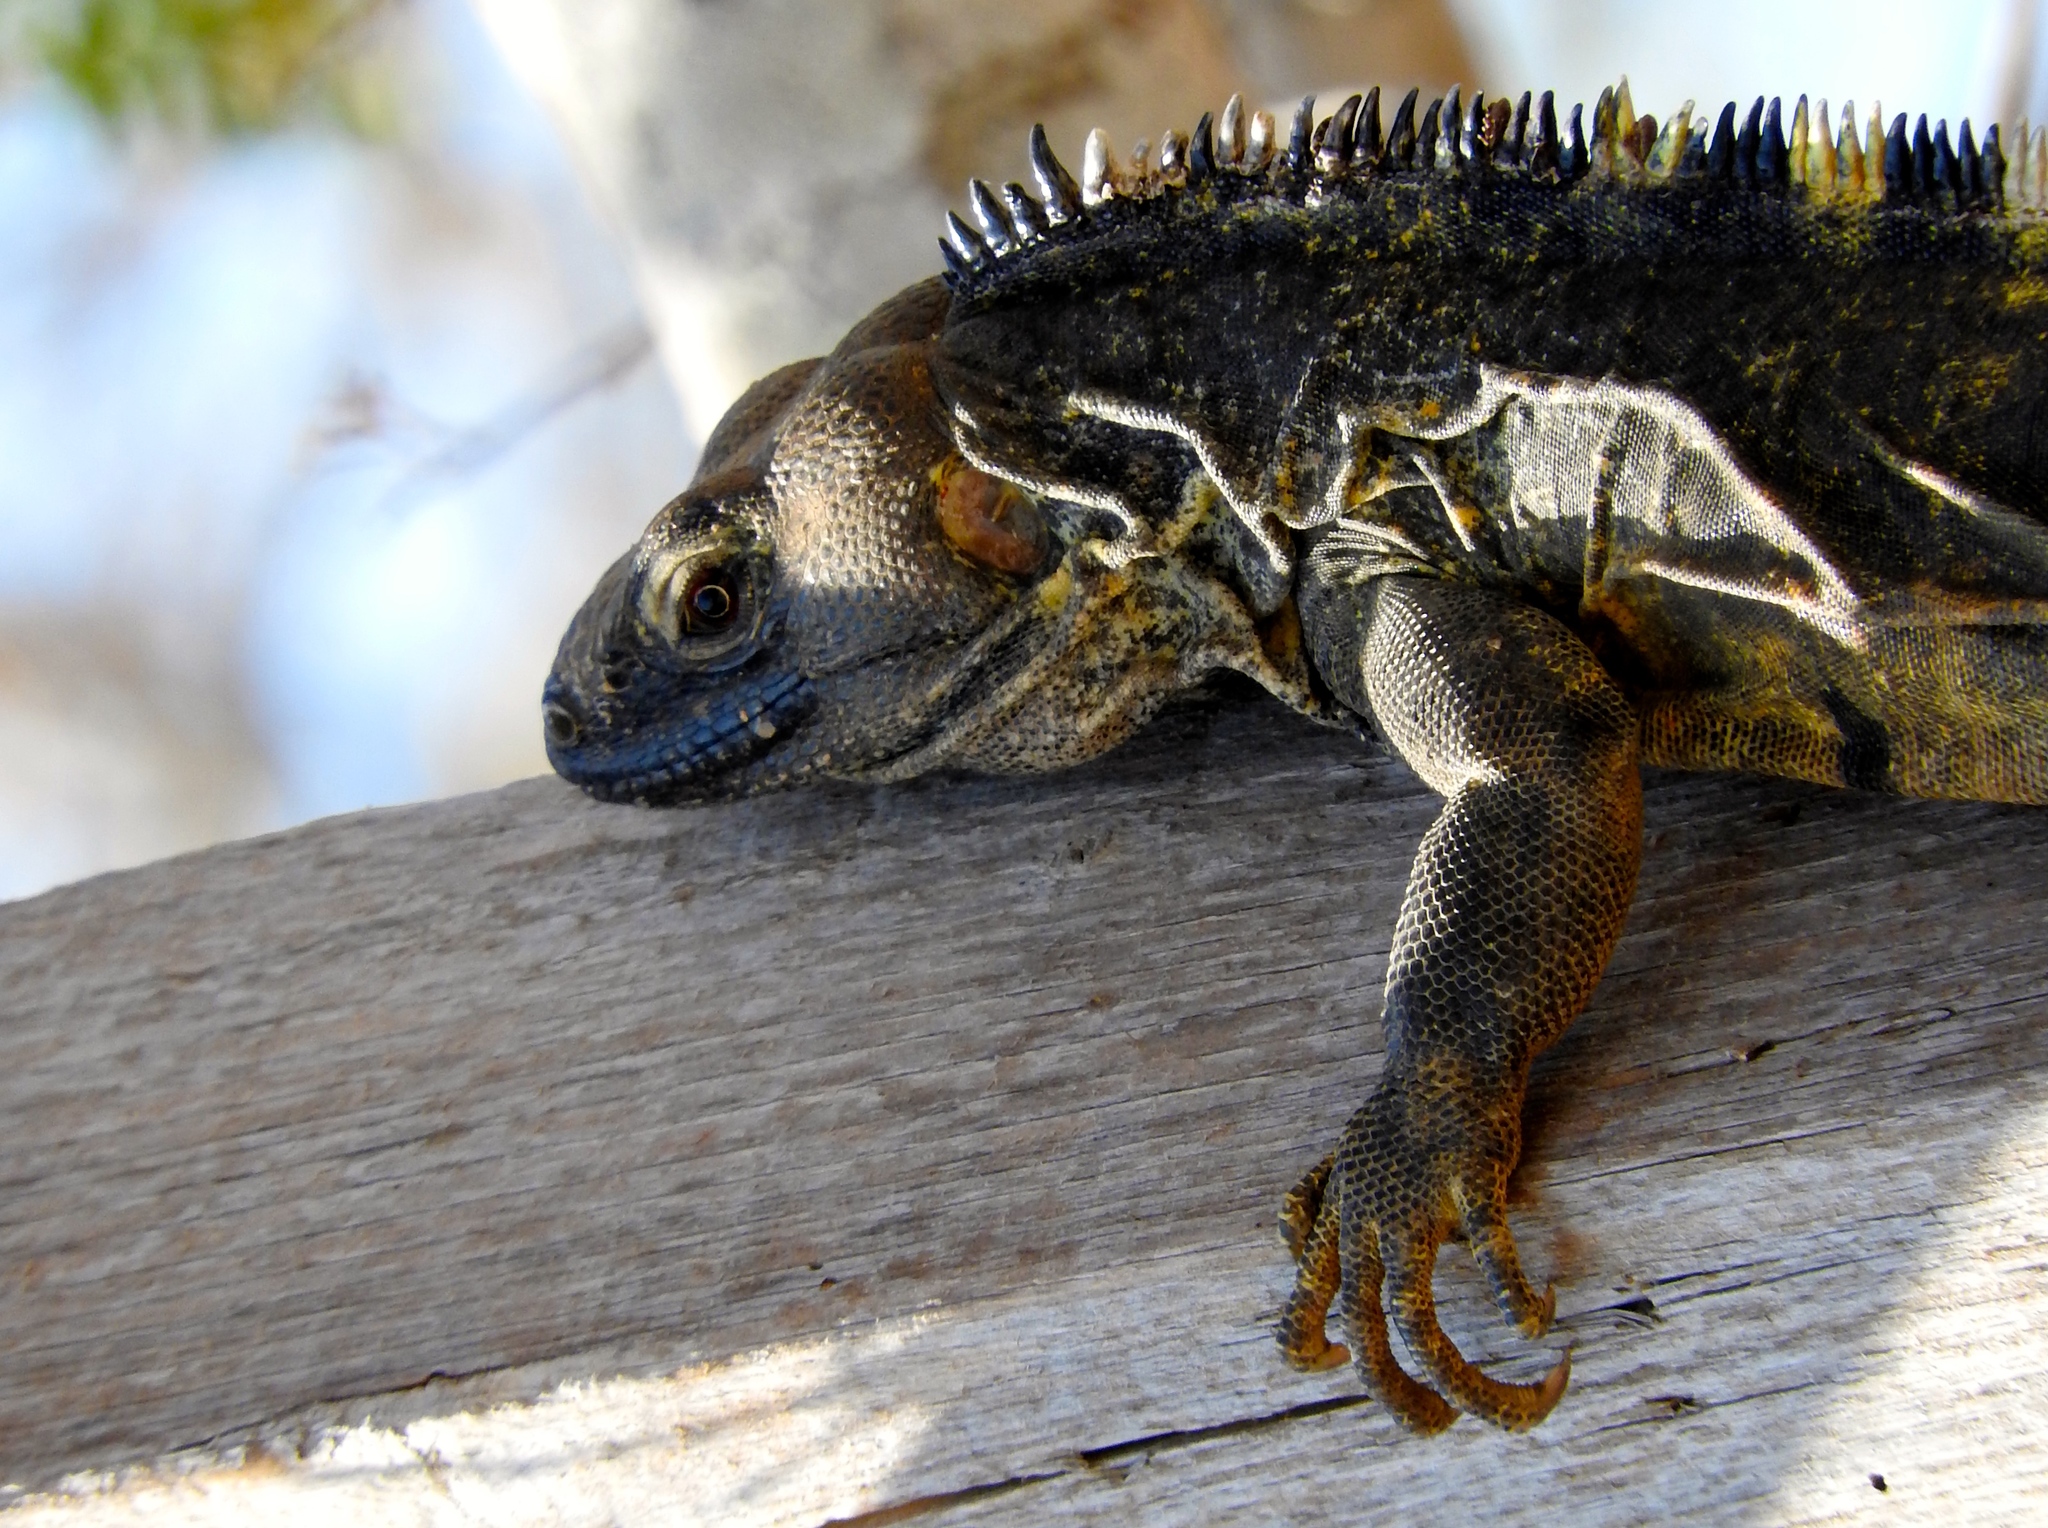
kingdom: Animalia
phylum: Chordata
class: Squamata
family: Iguanidae
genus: Ctenosaura
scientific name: Ctenosaura pectinata
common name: Guerreran spiny-tailed iguana
